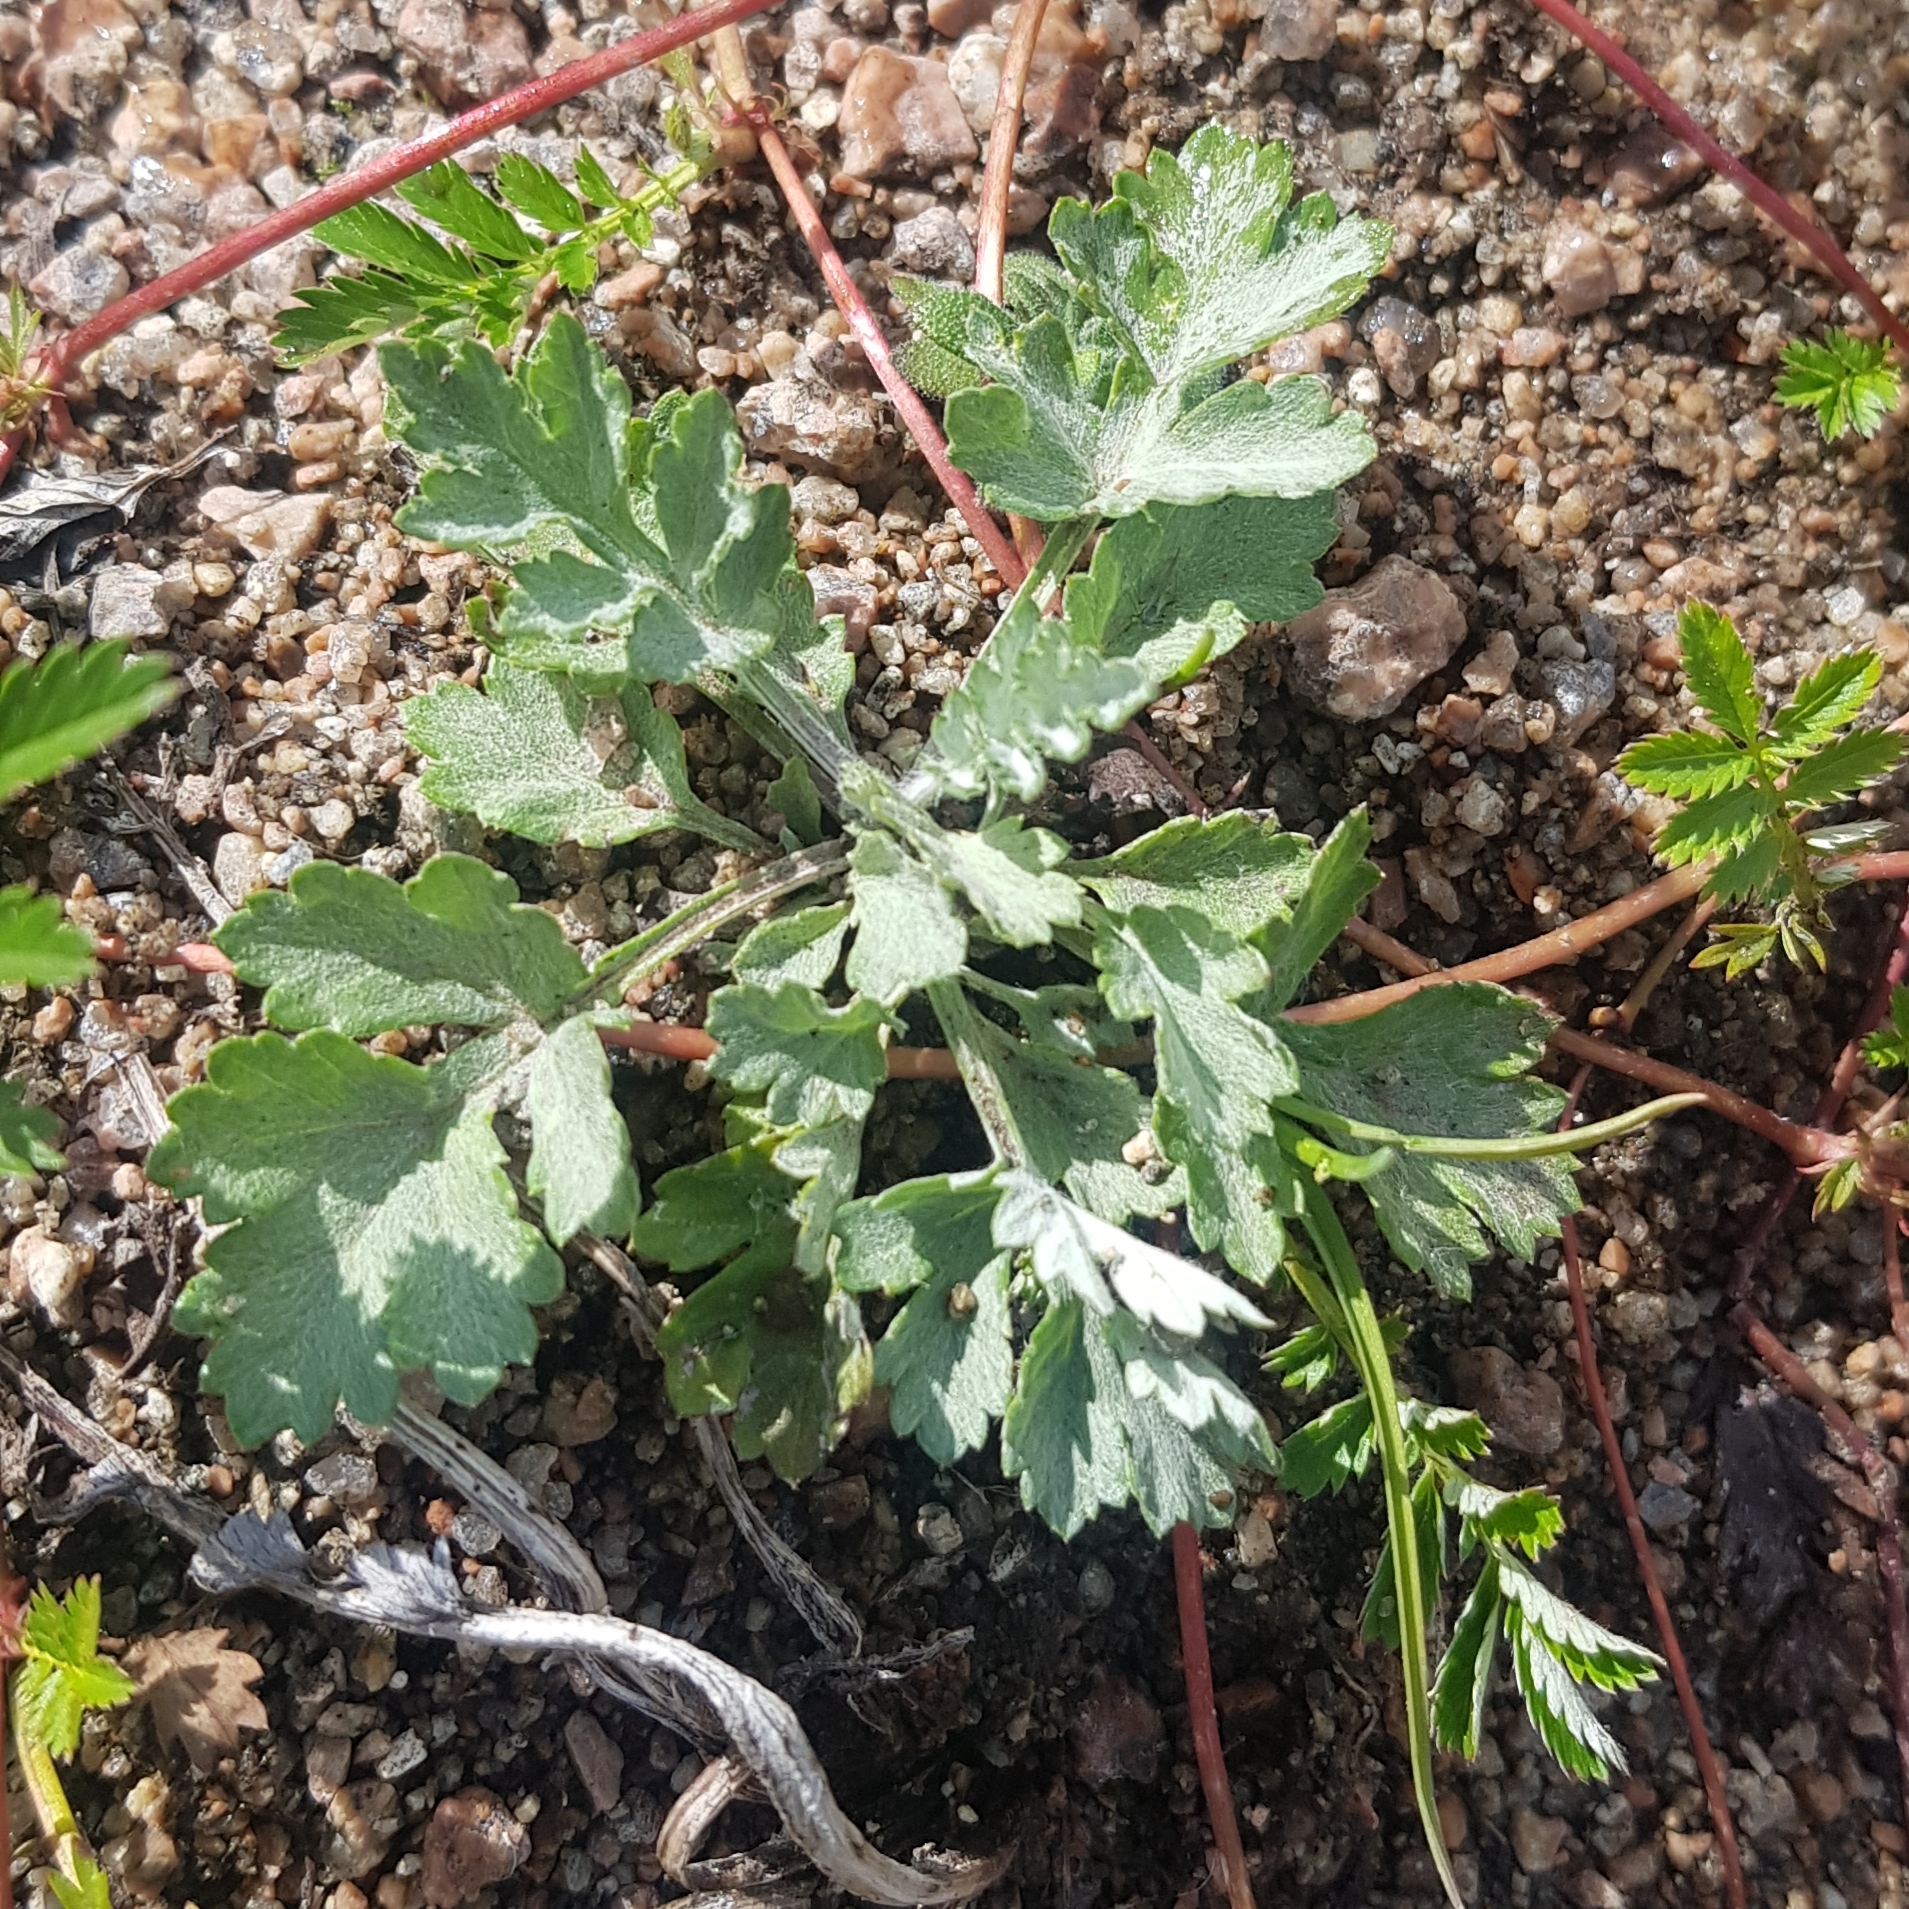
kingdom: Plantae
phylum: Tracheophyta
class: Magnoliopsida
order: Ranunculales
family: Papaveraceae
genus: Papaver
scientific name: Papaver nudicaule
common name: Arctic poppy
